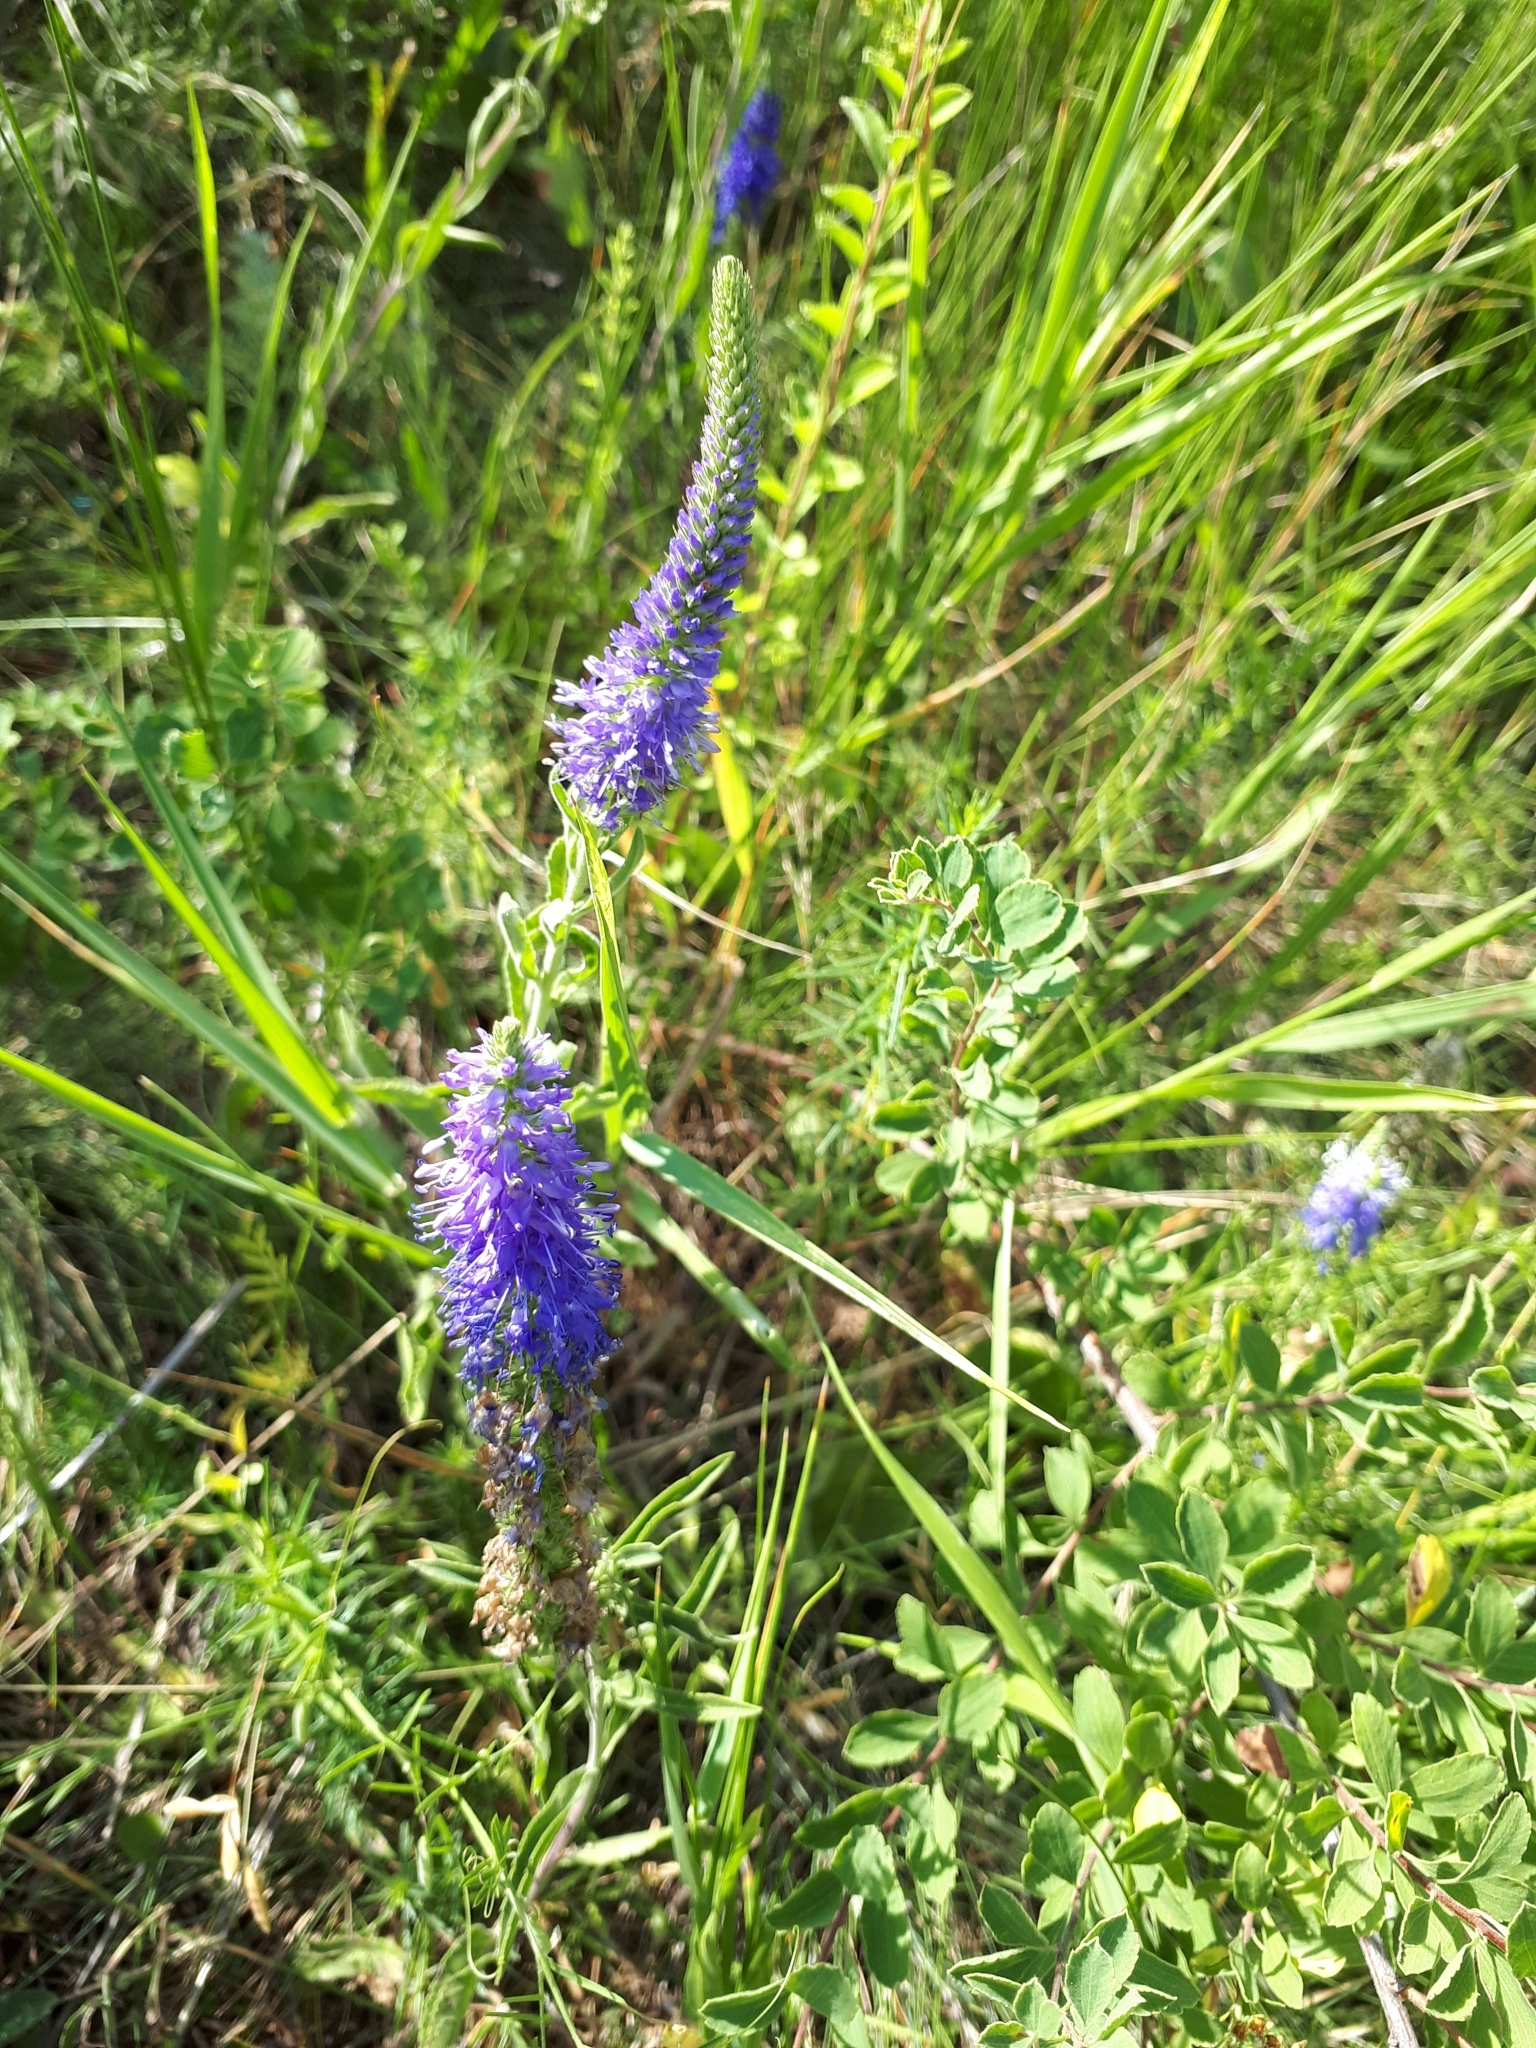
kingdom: Plantae
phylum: Tracheophyta
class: Magnoliopsida
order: Lamiales
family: Plantaginaceae
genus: Veronica
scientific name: Veronica spicata
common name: Spiked speedwell
